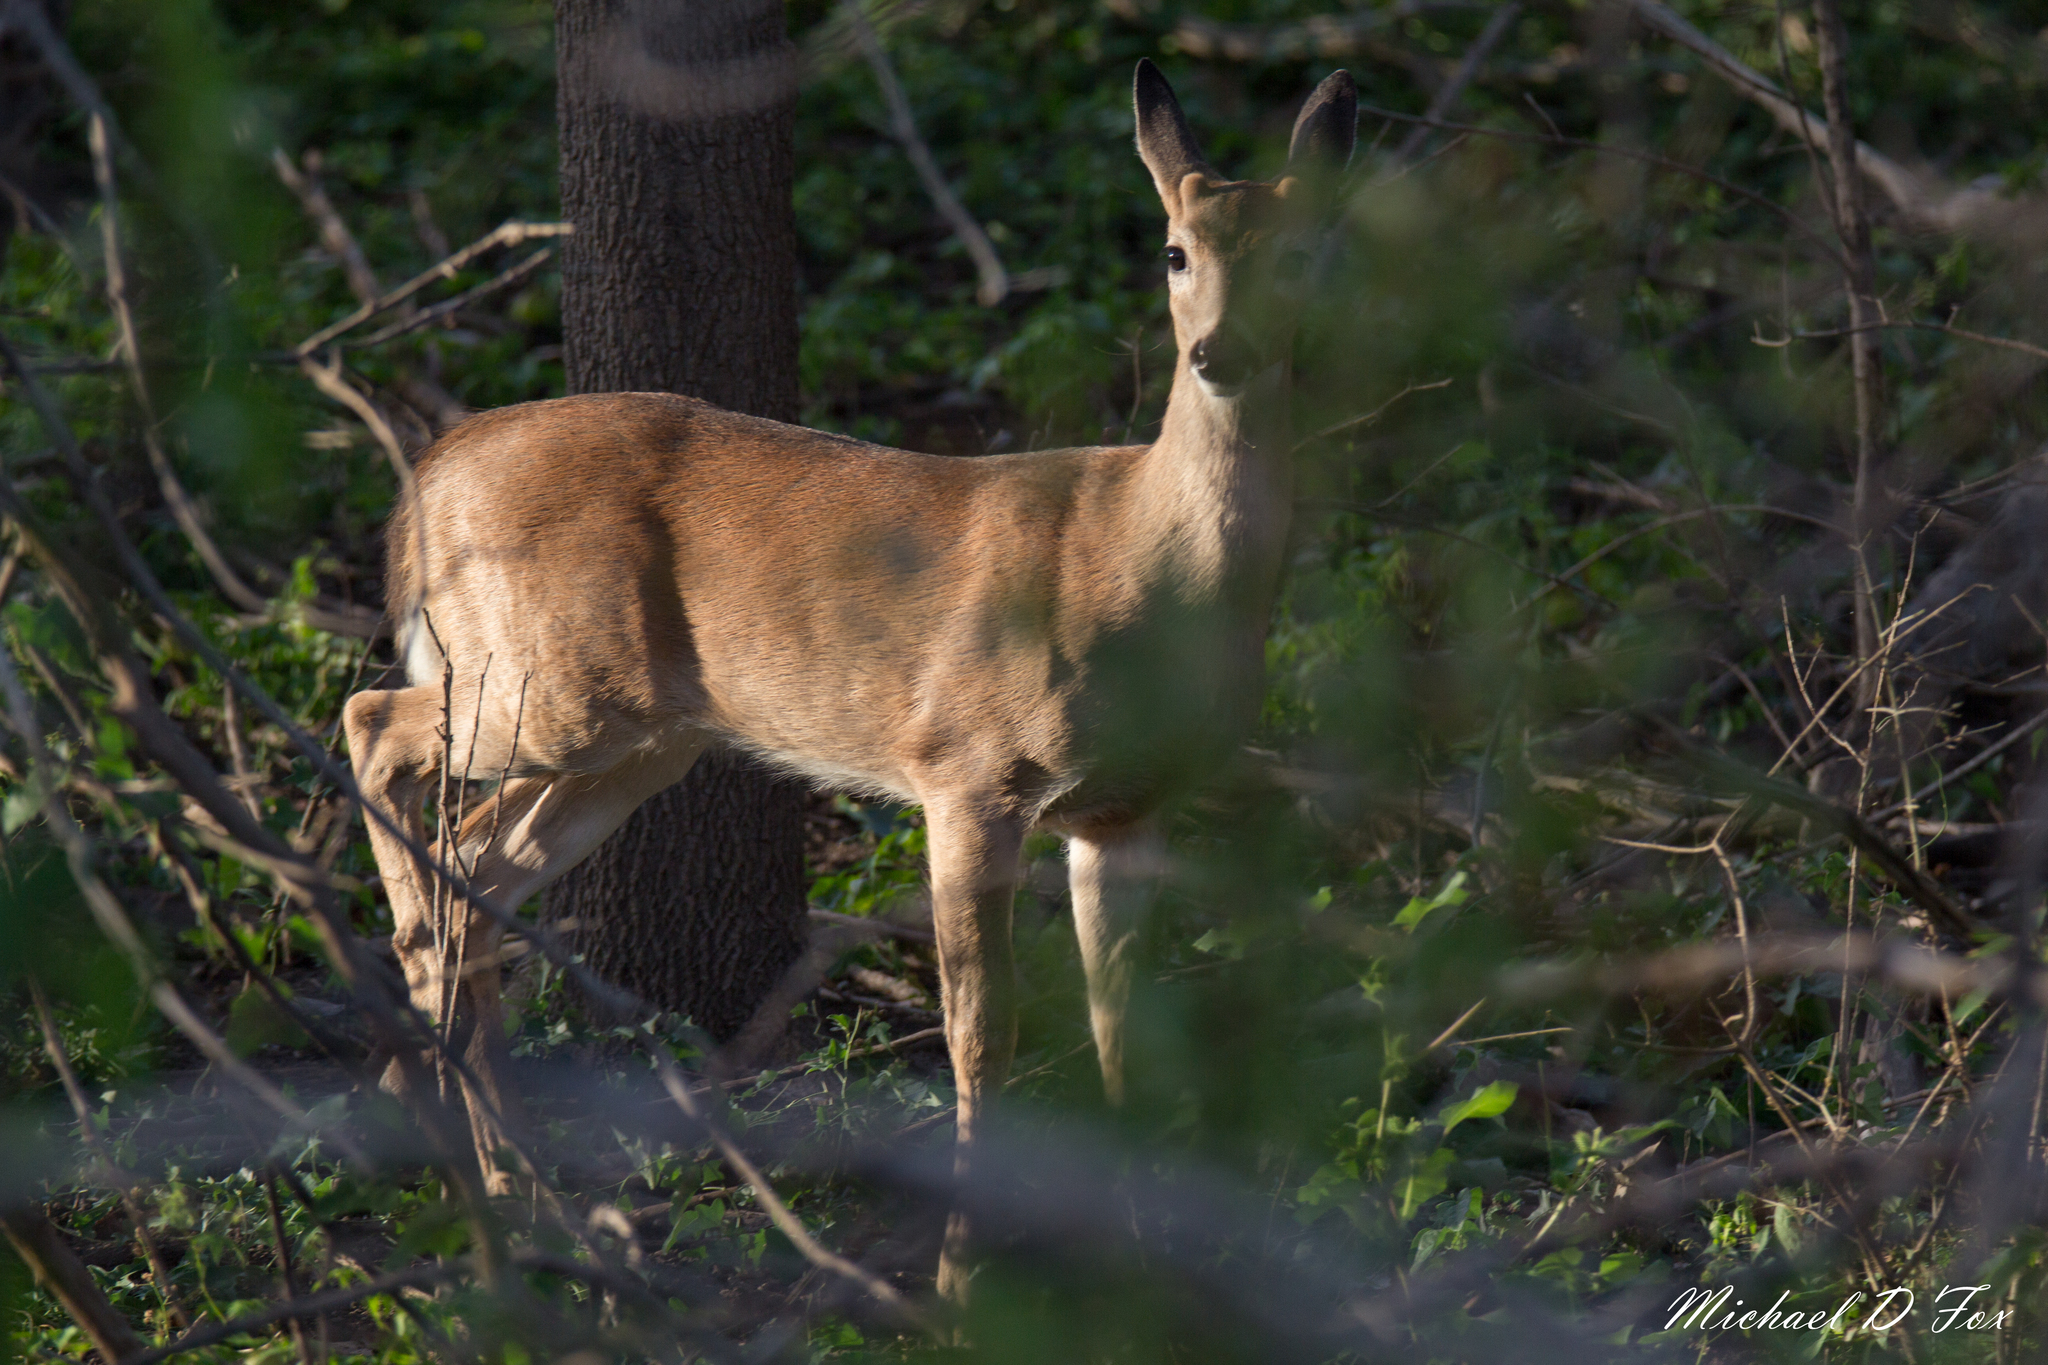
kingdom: Animalia
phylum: Chordata
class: Mammalia
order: Artiodactyla
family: Cervidae
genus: Odocoileus
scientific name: Odocoileus virginianus
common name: White-tailed deer
